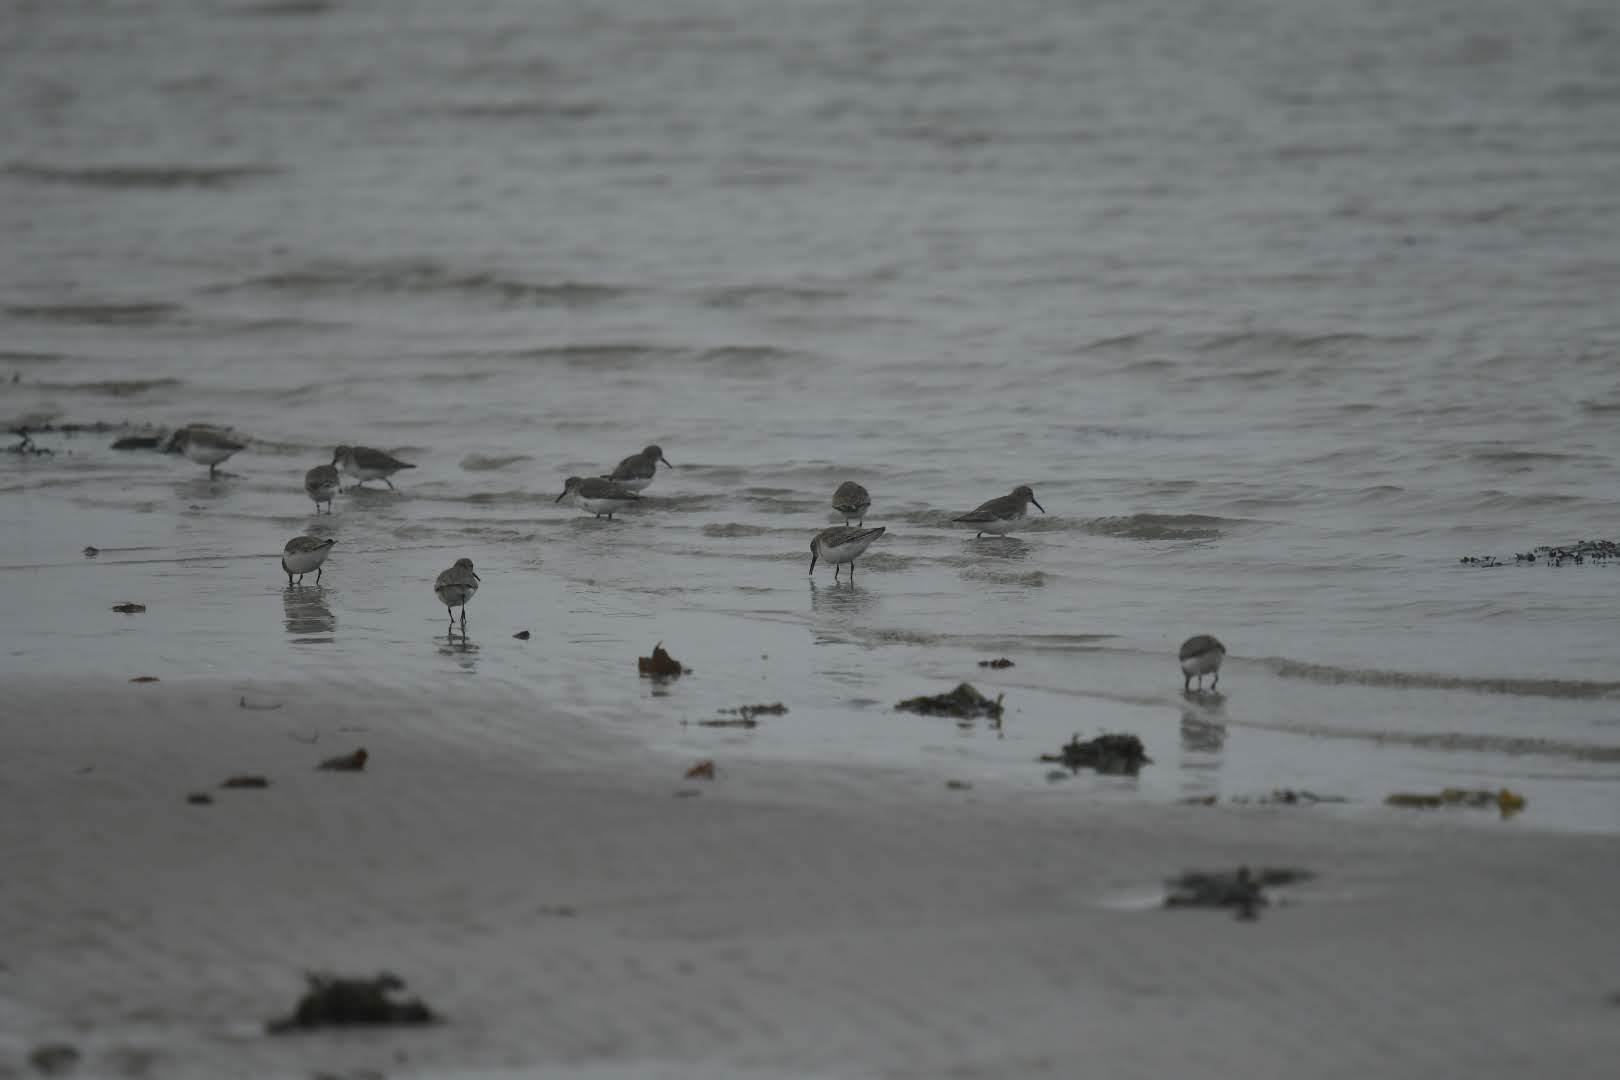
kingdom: Animalia
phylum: Chordata
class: Aves
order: Charadriiformes
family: Scolopacidae
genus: Calidris
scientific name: Calidris alpina
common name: Dunlin
